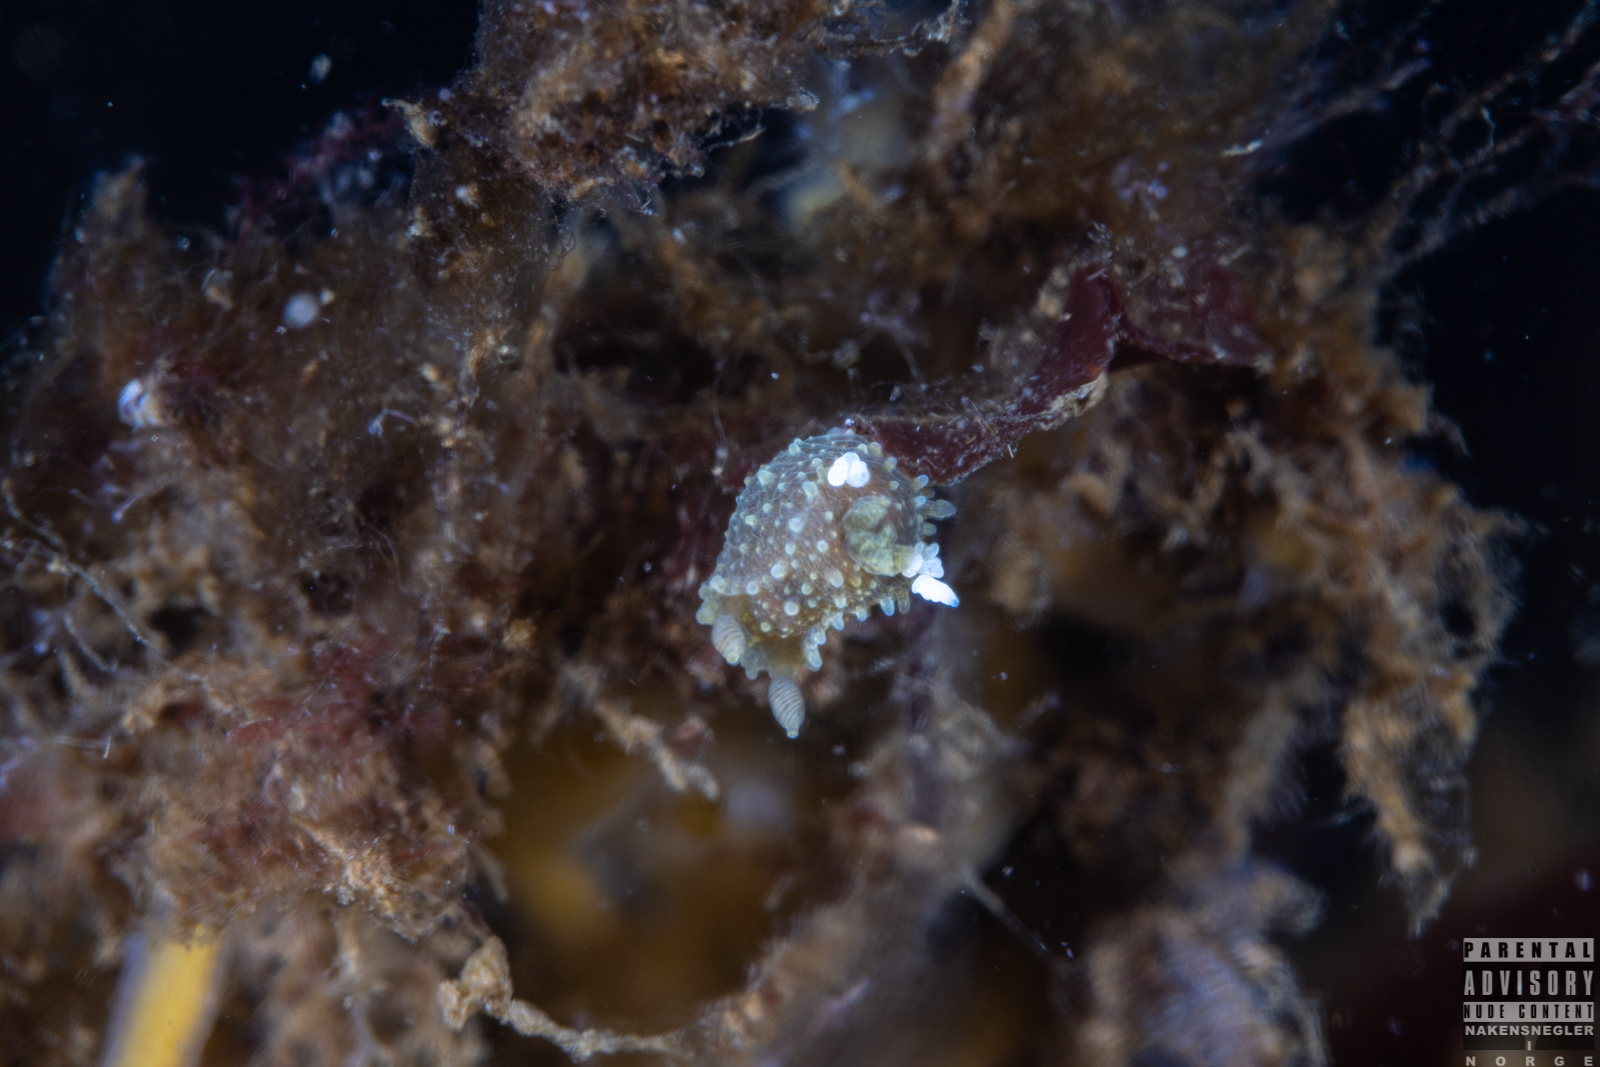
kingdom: Animalia
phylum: Mollusca
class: Gastropoda
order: Nudibranchia
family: Polyceridae
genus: Palio
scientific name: Palio dubia
